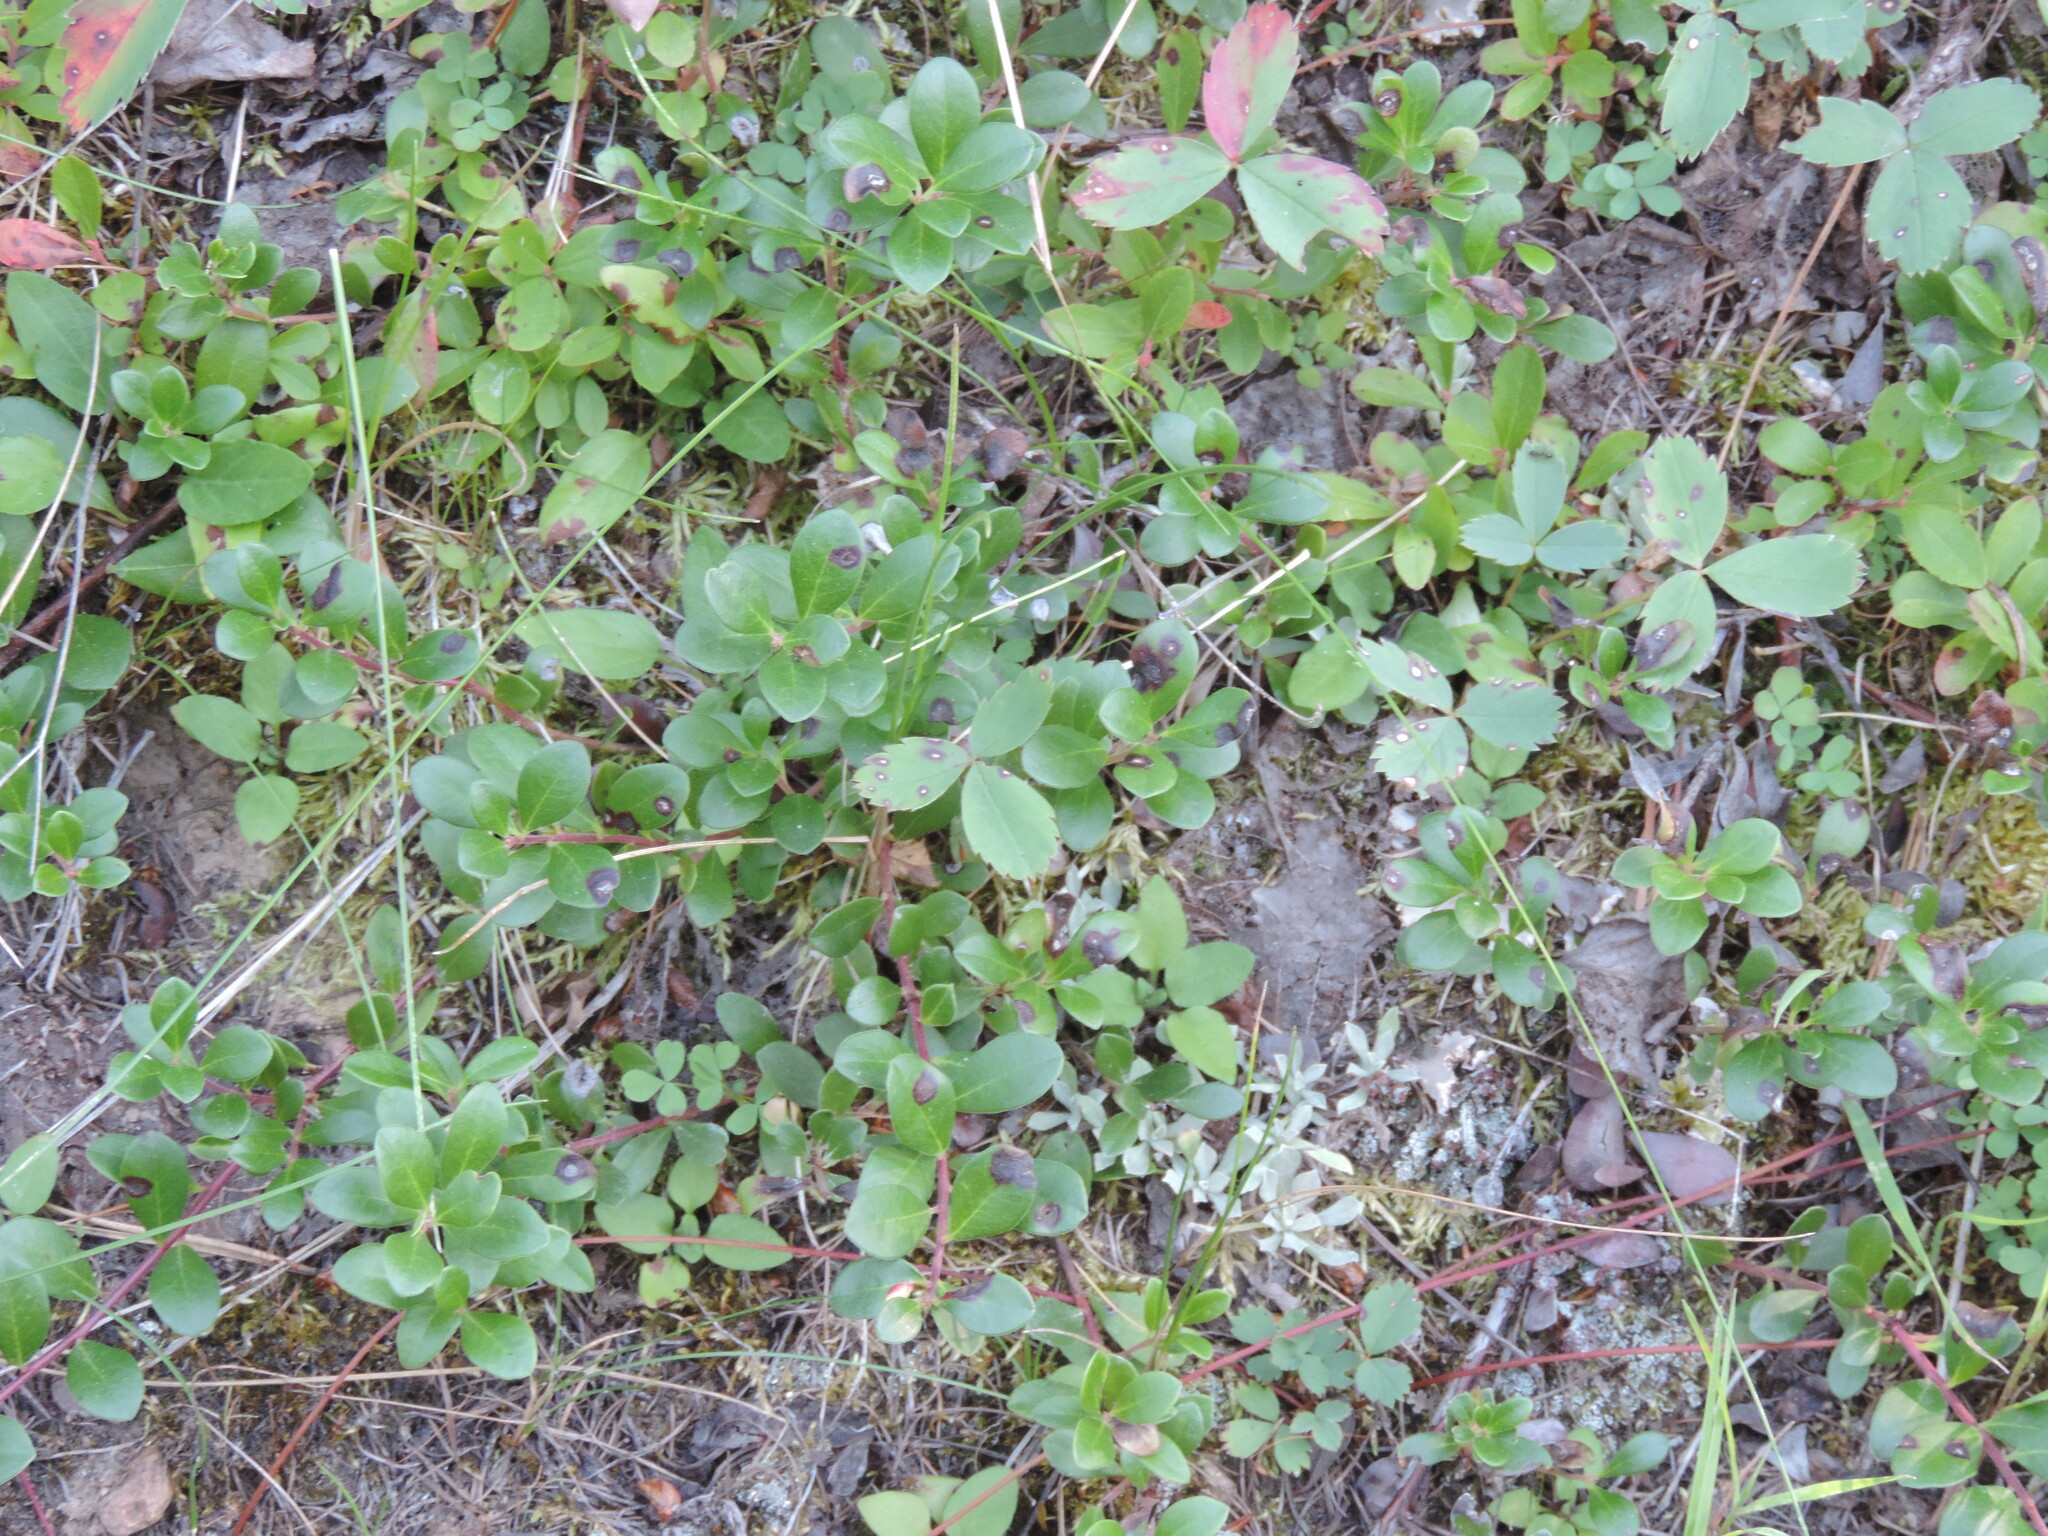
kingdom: Plantae
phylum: Tracheophyta
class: Magnoliopsida
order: Ericales
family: Ericaceae
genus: Arctostaphylos
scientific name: Arctostaphylos uva-ursi
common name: Bearberry
